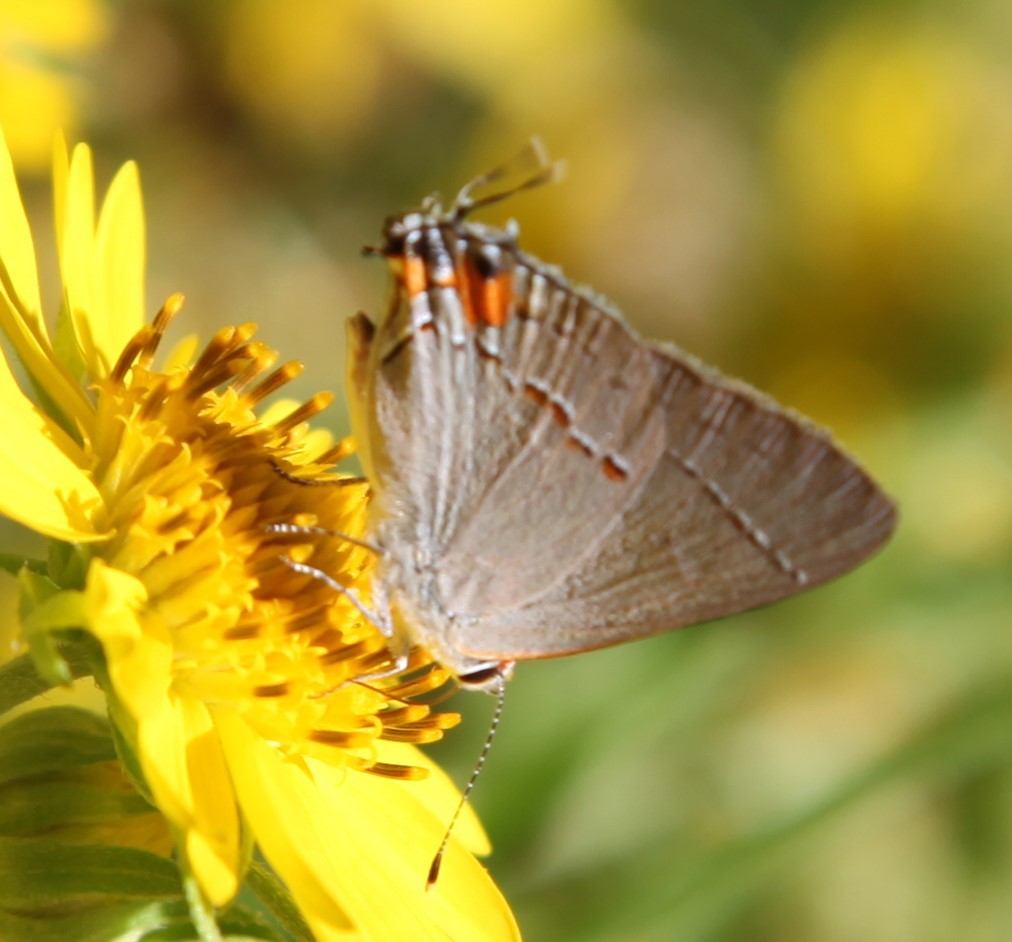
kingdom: Animalia
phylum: Arthropoda
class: Insecta
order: Lepidoptera
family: Lycaenidae
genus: Strymon
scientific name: Strymon melinus
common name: Gray hairstreak
